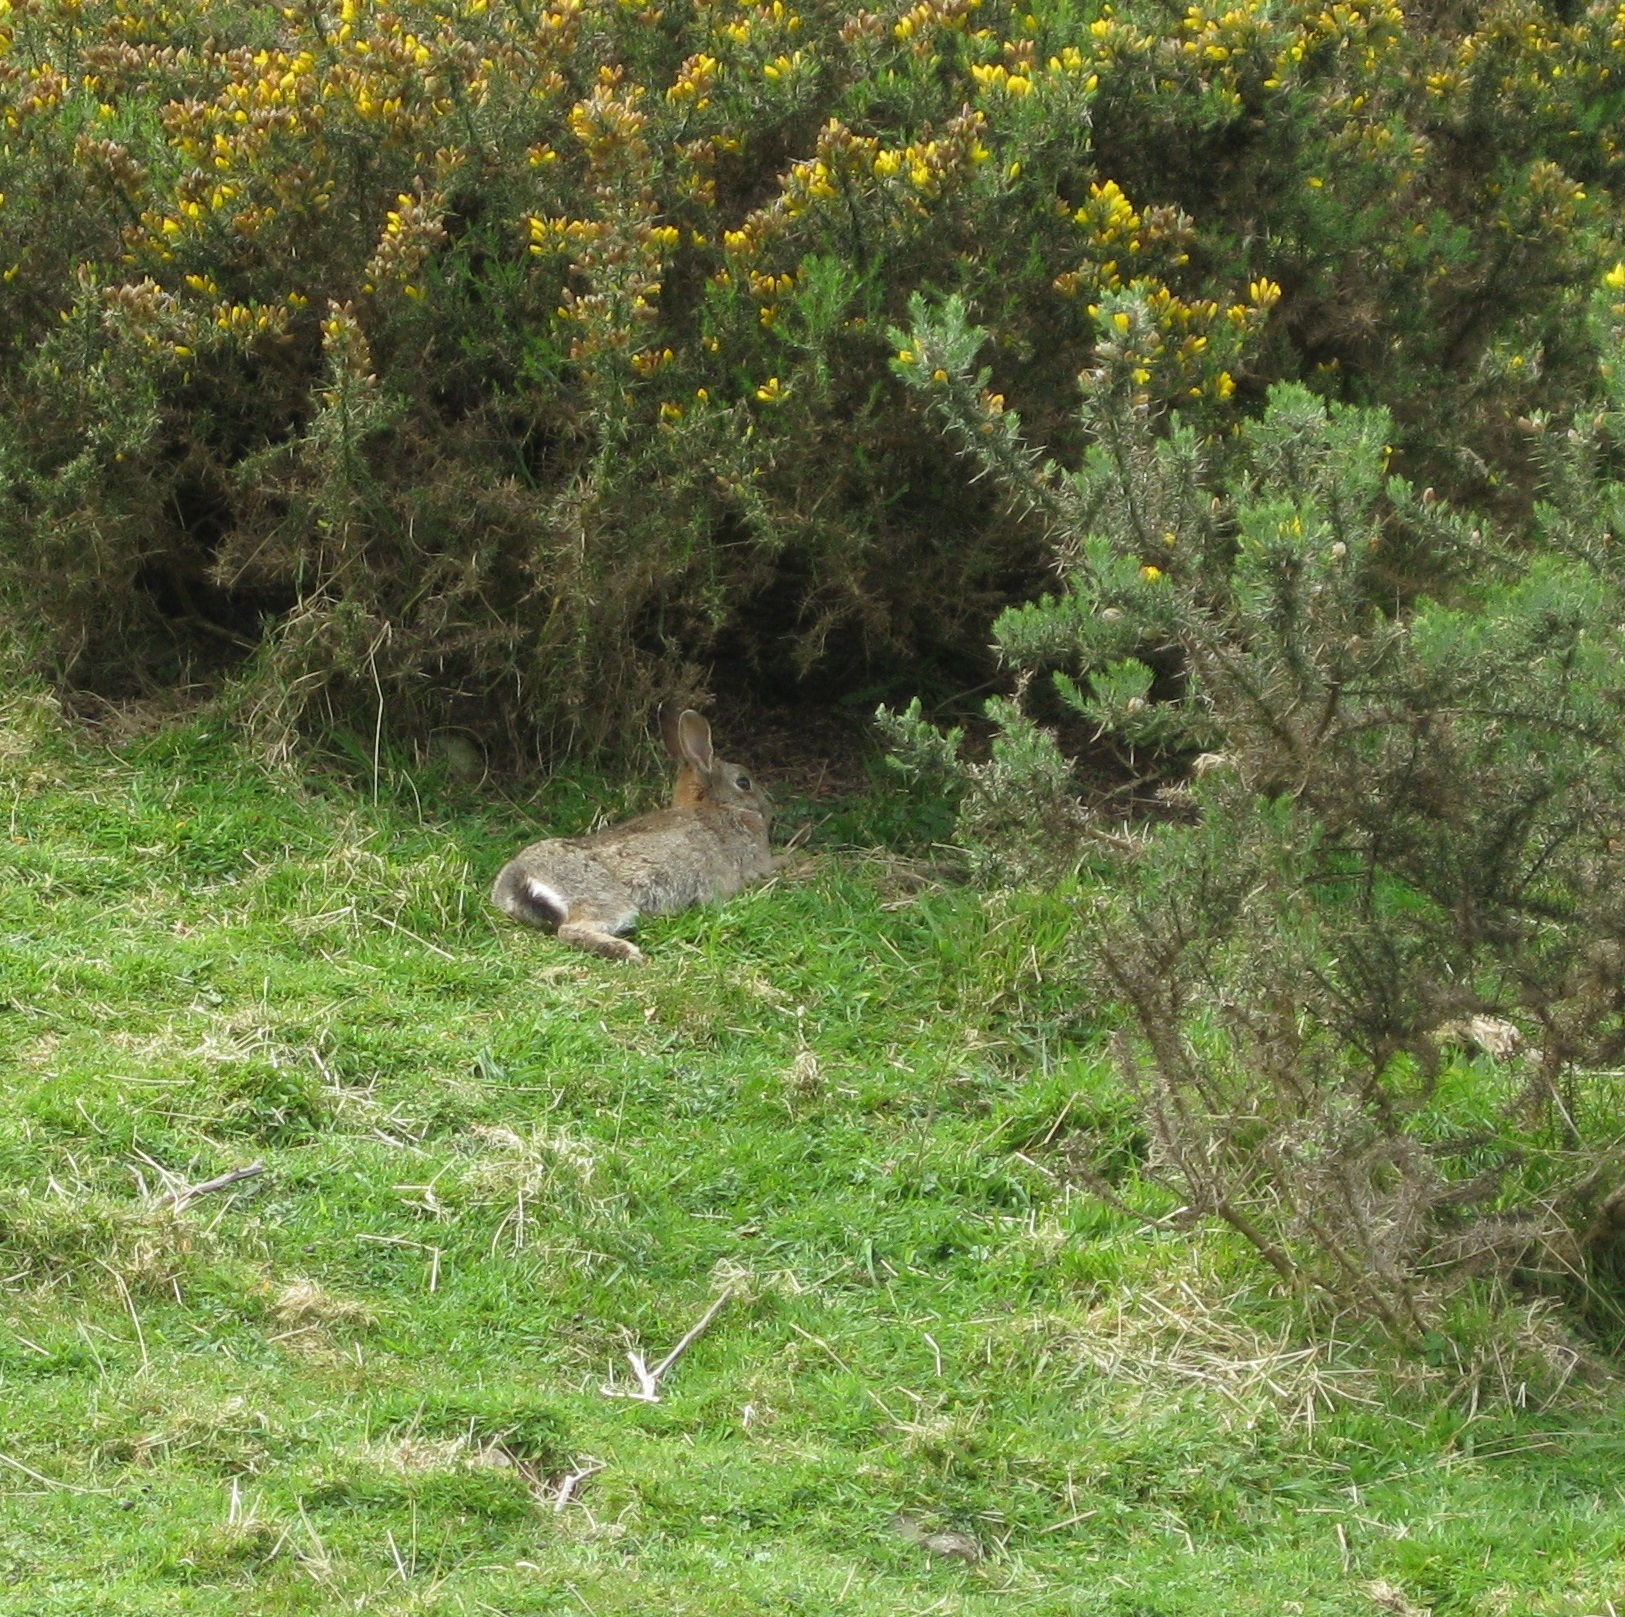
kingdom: Animalia
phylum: Chordata
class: Mammalia
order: Lagomorpha
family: Leporidae
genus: Oryctolagus
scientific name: Oryctolagus cuniculus
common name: European rabbit
